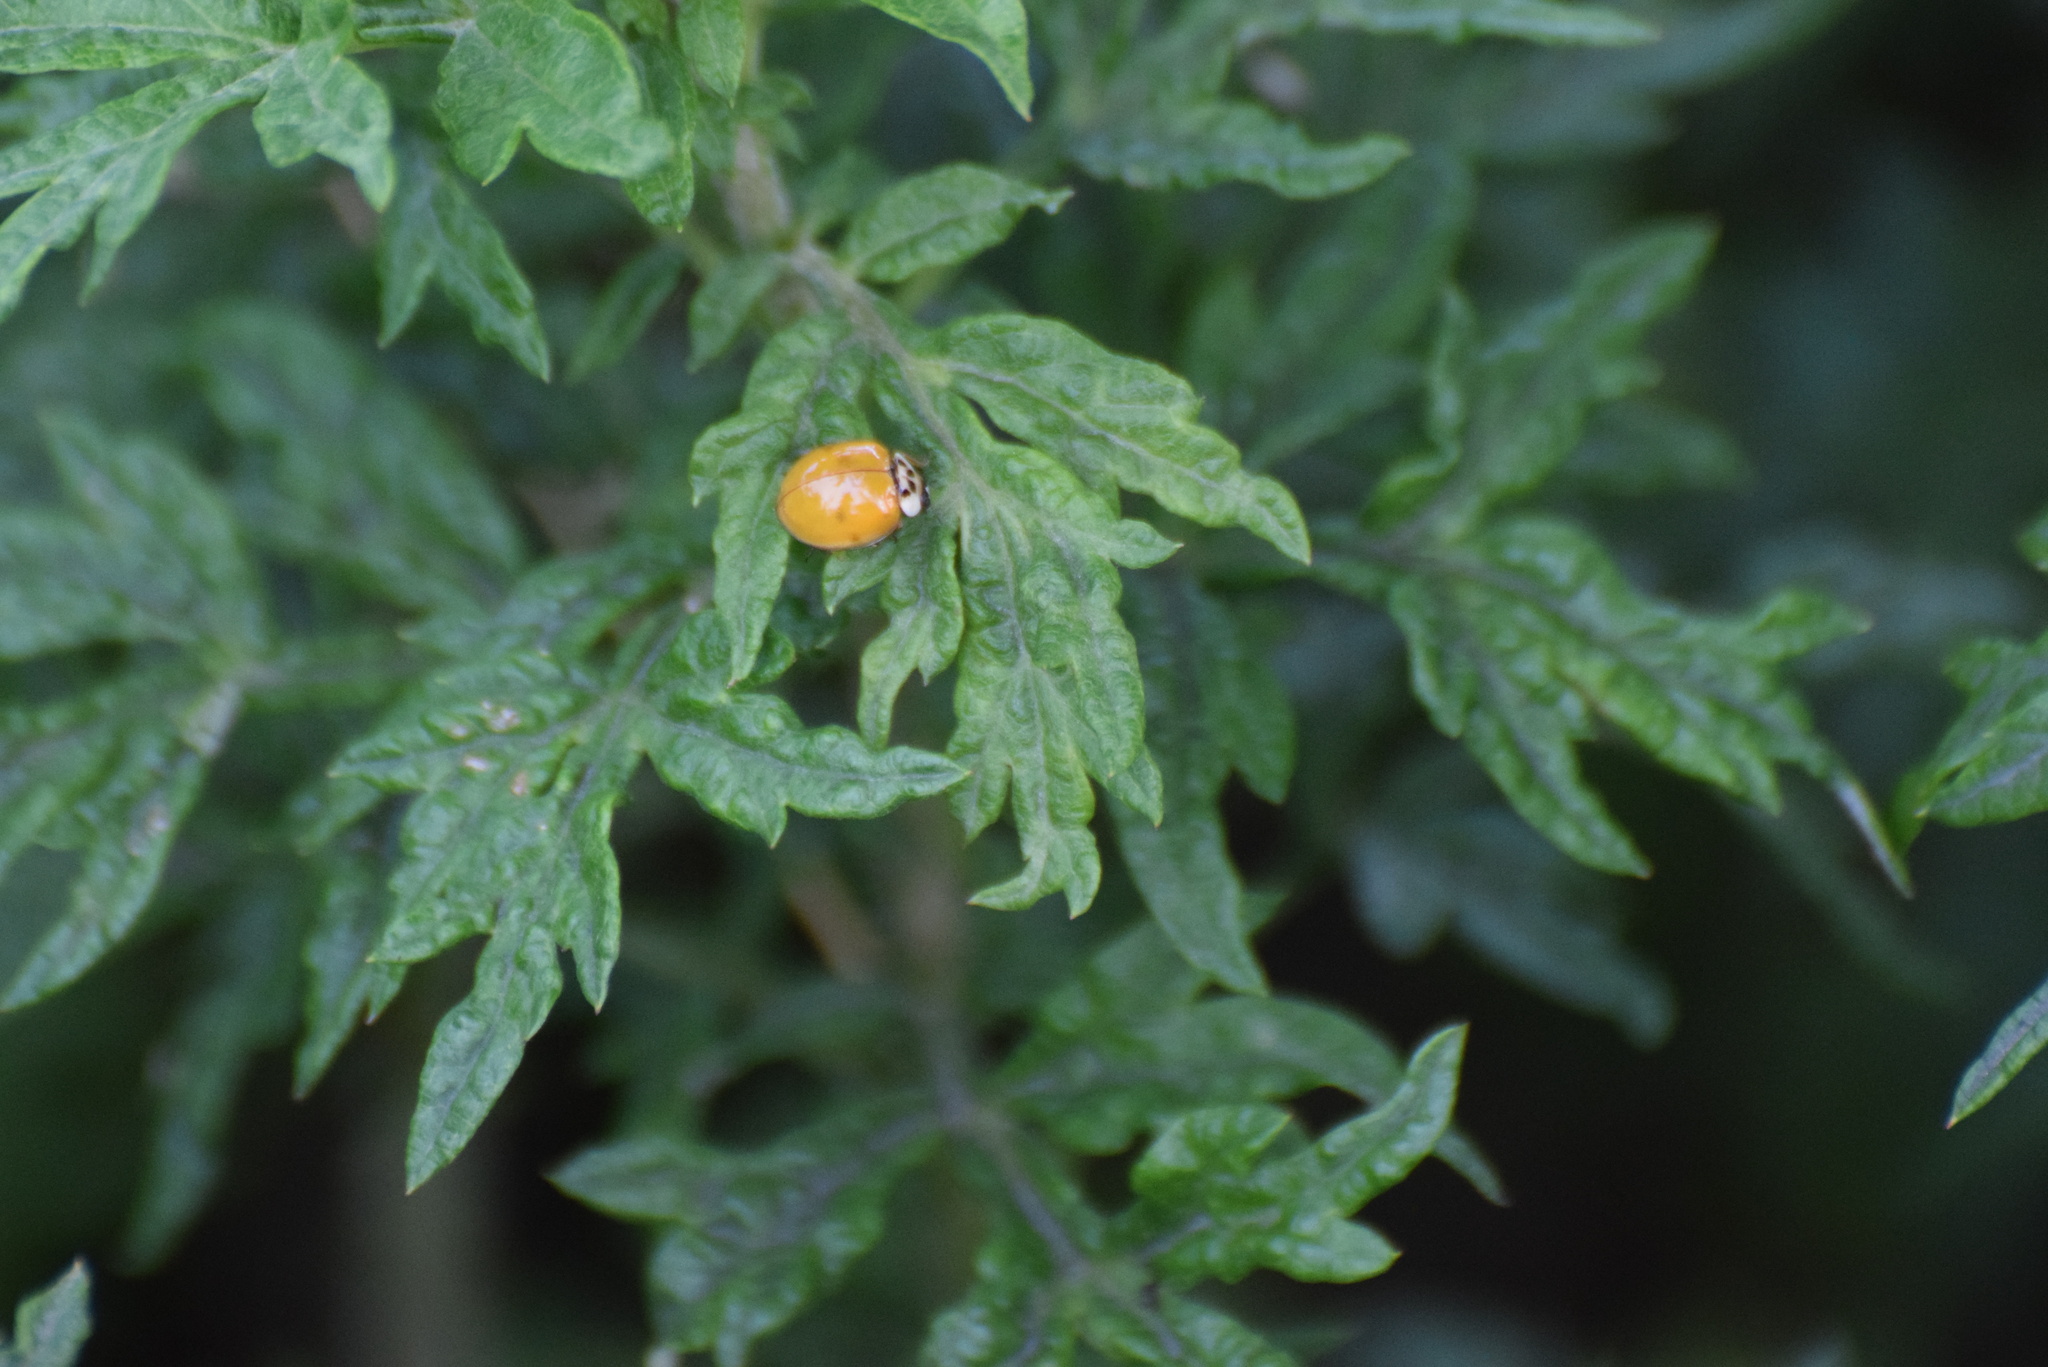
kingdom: Animalia
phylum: Arthropoda
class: Insecta
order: Coleoptera
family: Coccinellidae
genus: Harmonia
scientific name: Harmonia axyridis
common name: Harlequin ladybird
